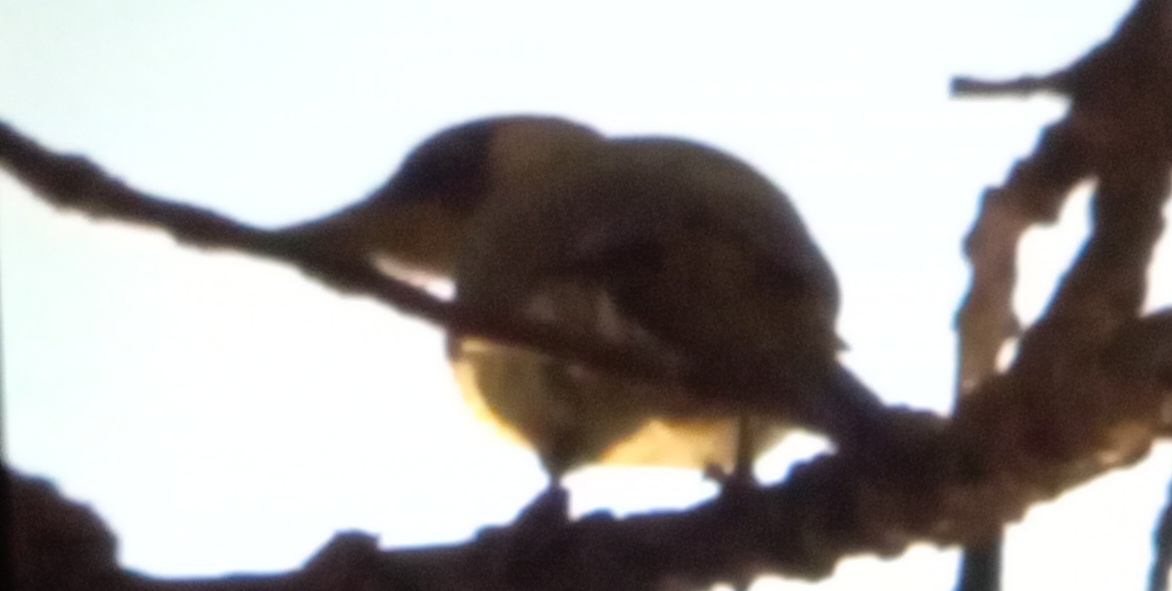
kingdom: Animalia
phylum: Chordata
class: Aves
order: Piciformes
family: Picidae
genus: Picus
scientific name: Picus viridis
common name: European green woodpecker
